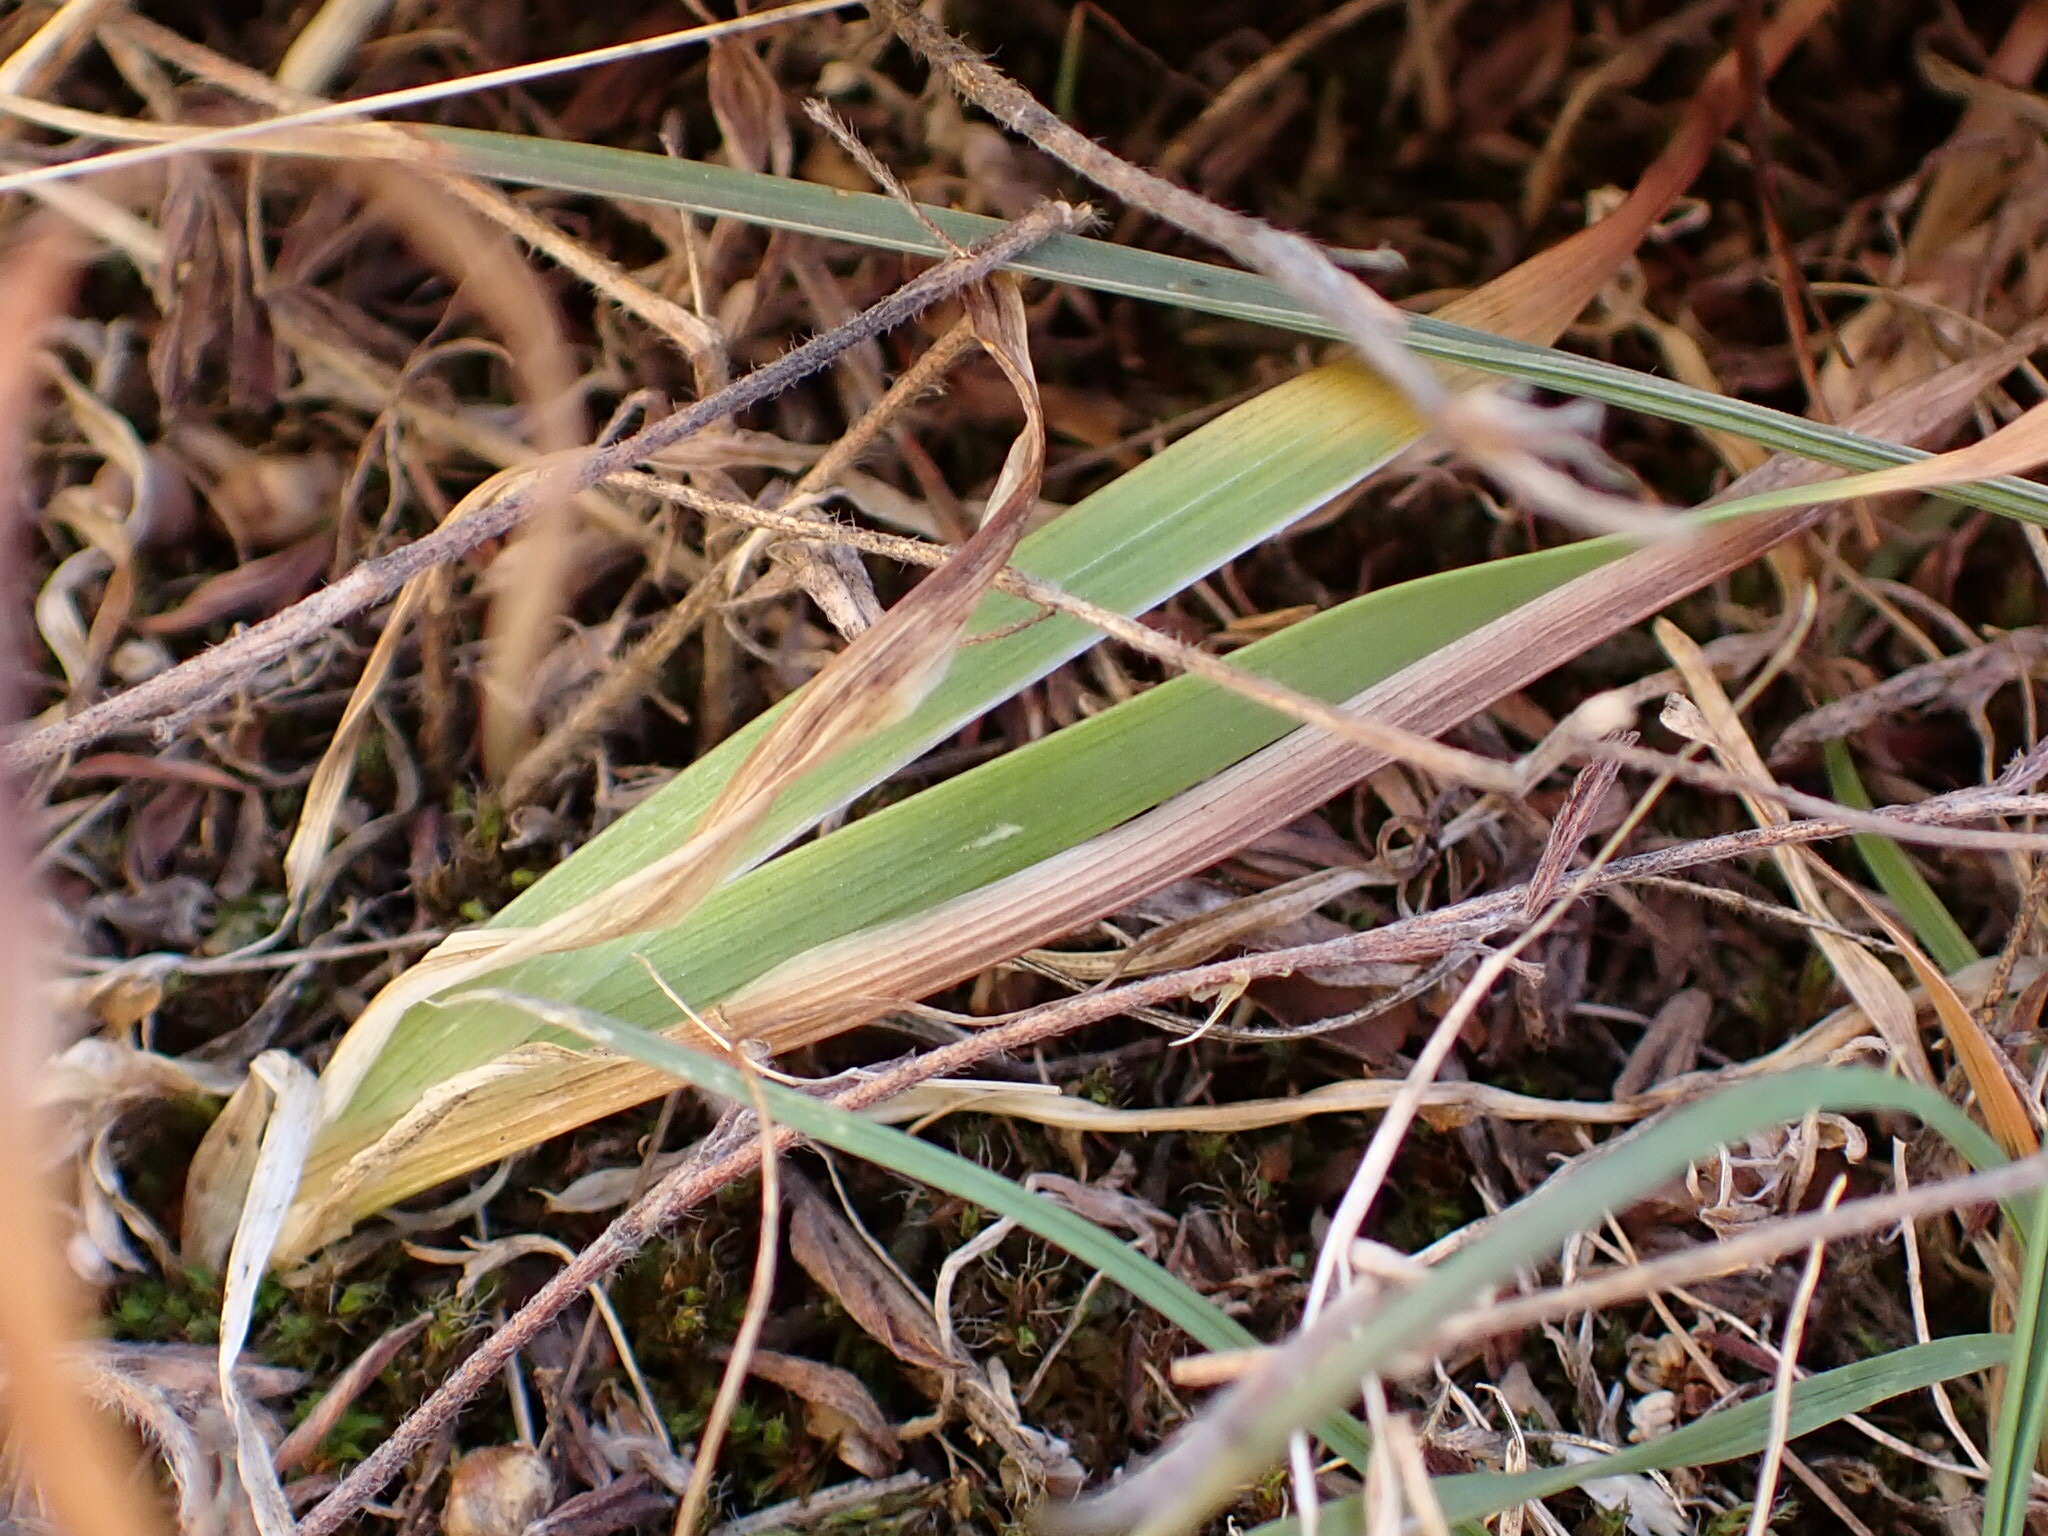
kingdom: Plantae
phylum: Tracheophyta
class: Liliopsida
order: Asparagales
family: Iridaceae
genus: Iris
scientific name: Iris arenaria
